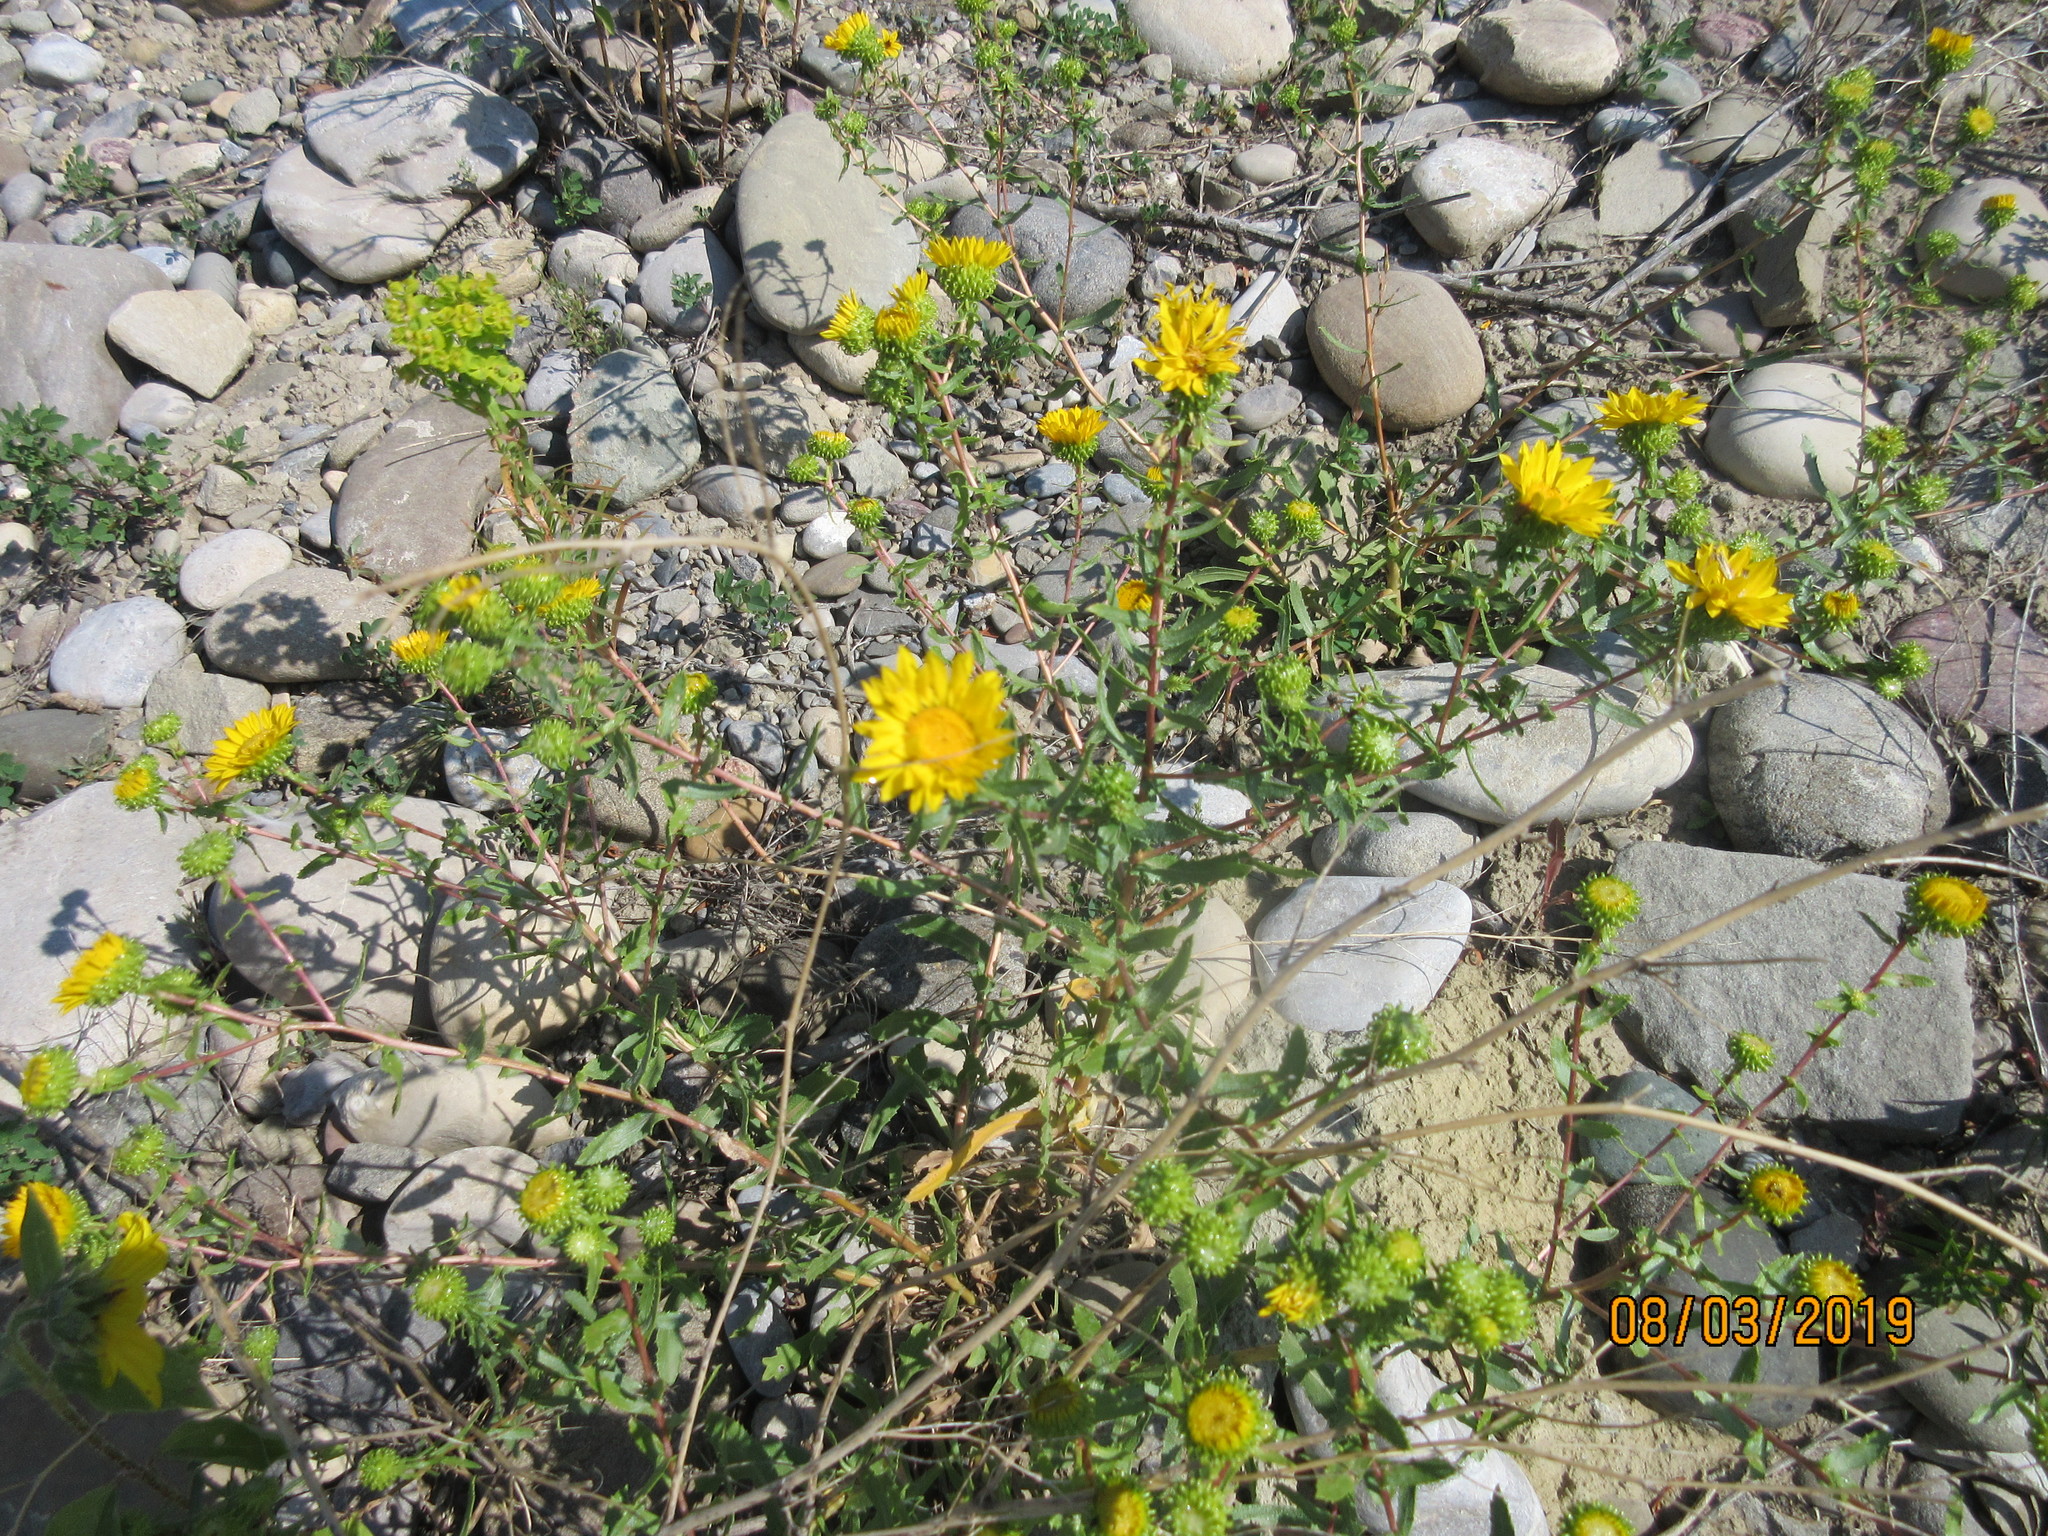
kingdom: Plantae
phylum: Tracheophyta
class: Magnoliopsida
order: Asterales
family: Asteraceae
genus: Grindelia
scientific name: Grindelia squarrosa
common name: Curly-cup gumweed
